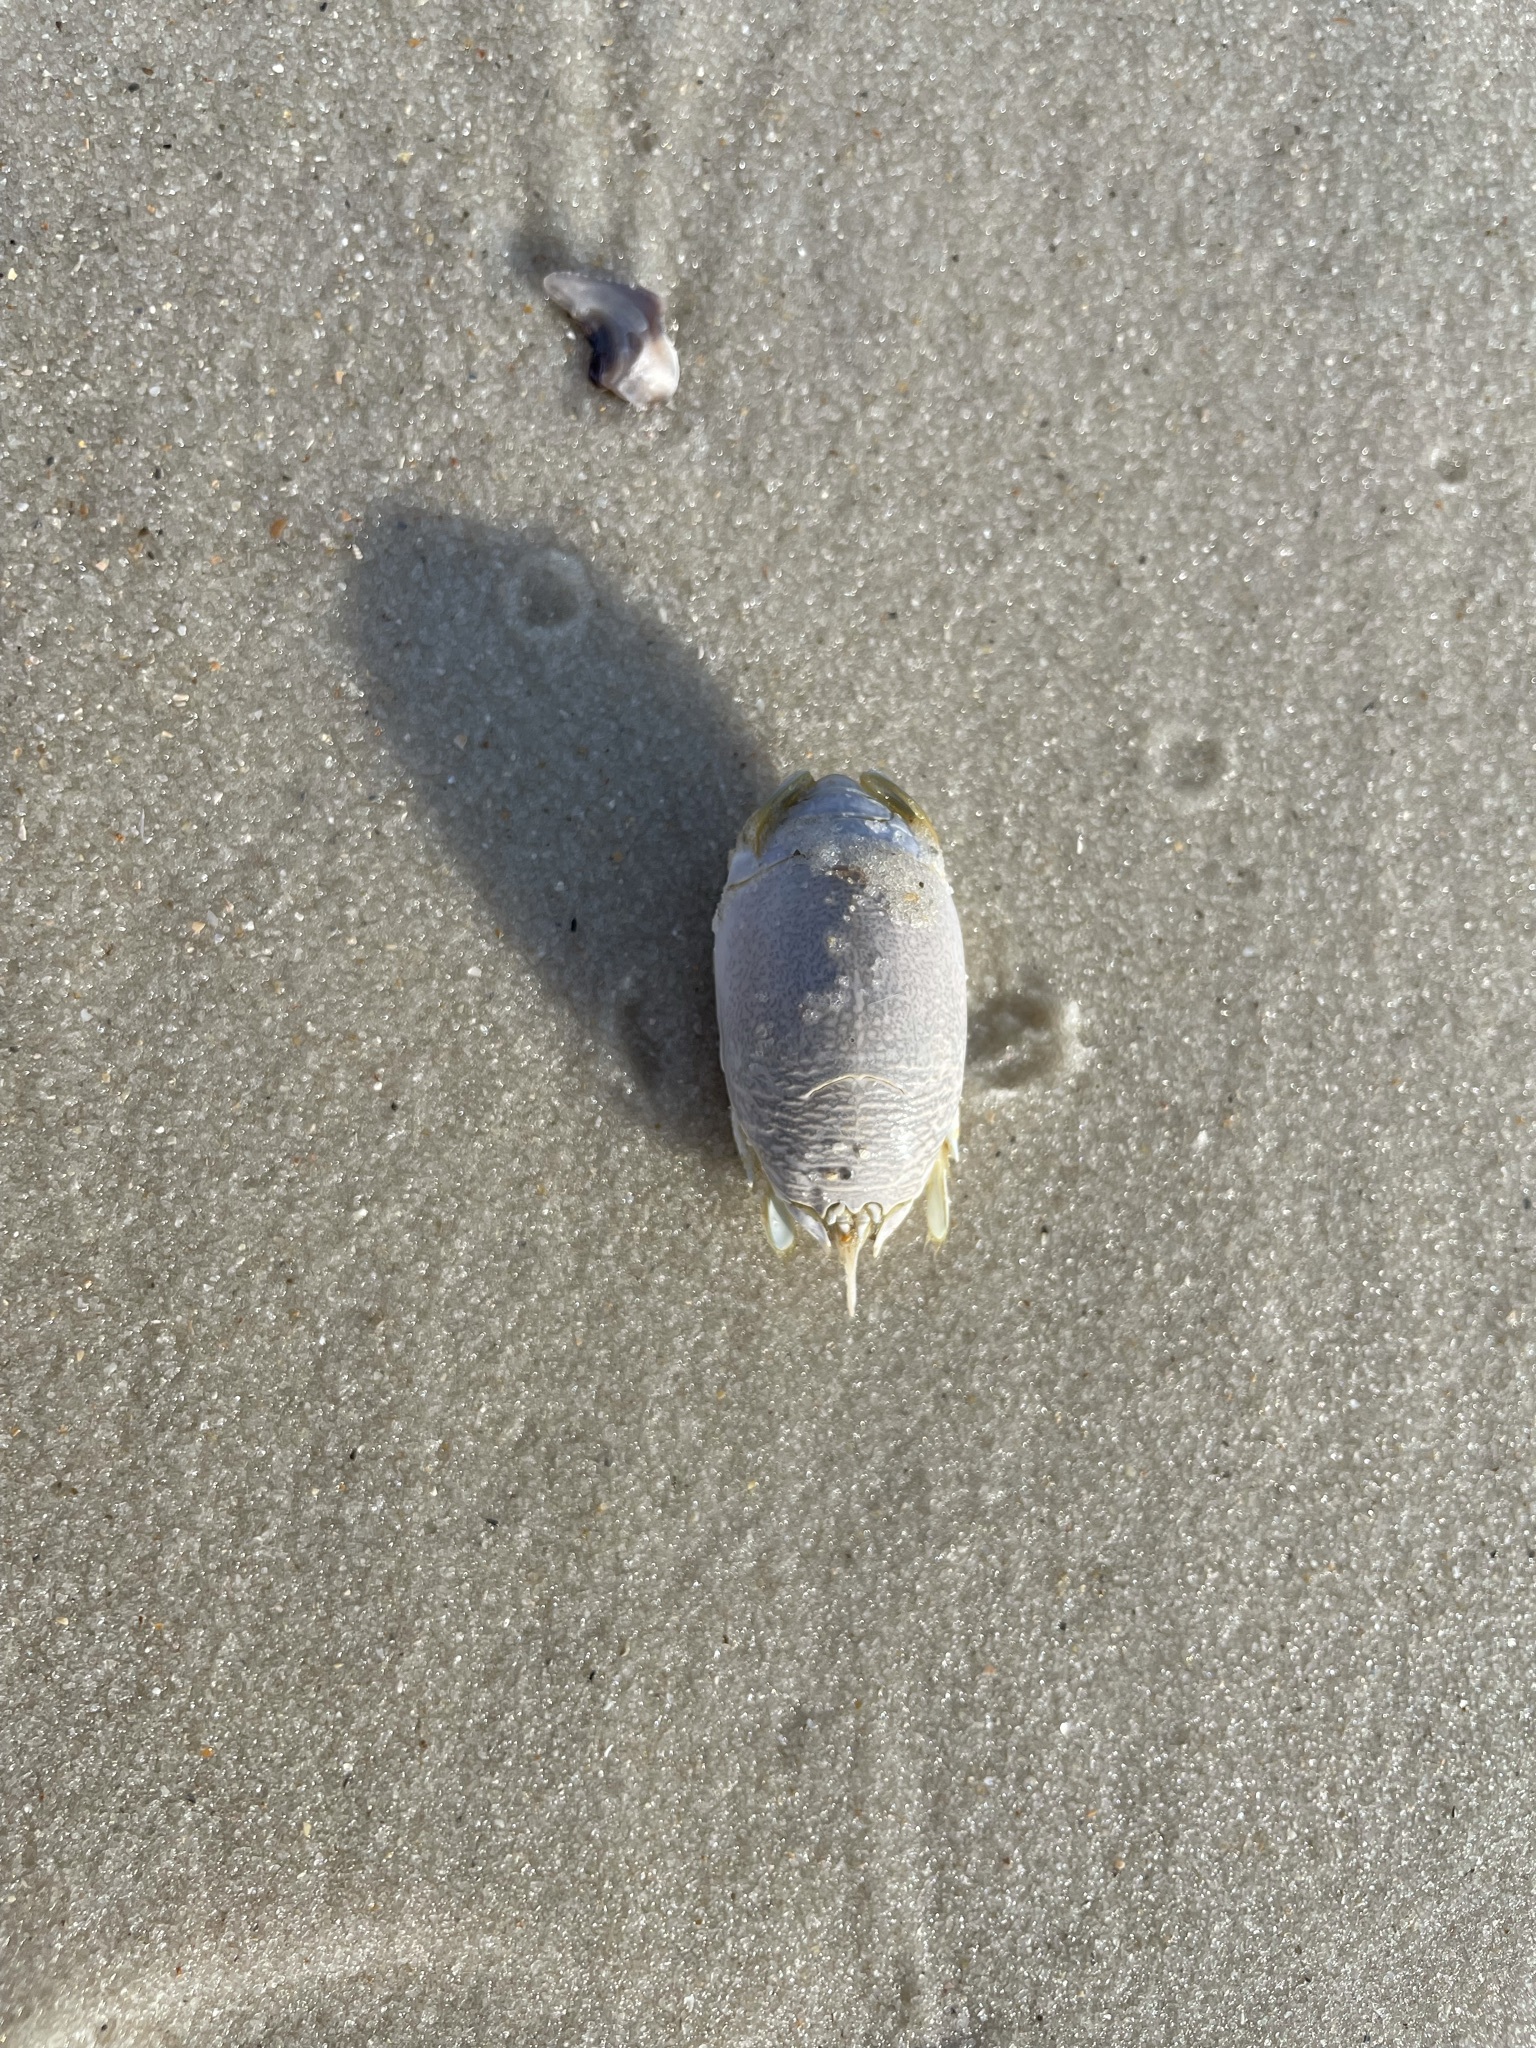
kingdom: Animalia
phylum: Arthropoda
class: Malacostraca
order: Decapoda
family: Hippidae
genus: Emerita
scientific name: Emerita talpoida
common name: Atlantic sand crab
